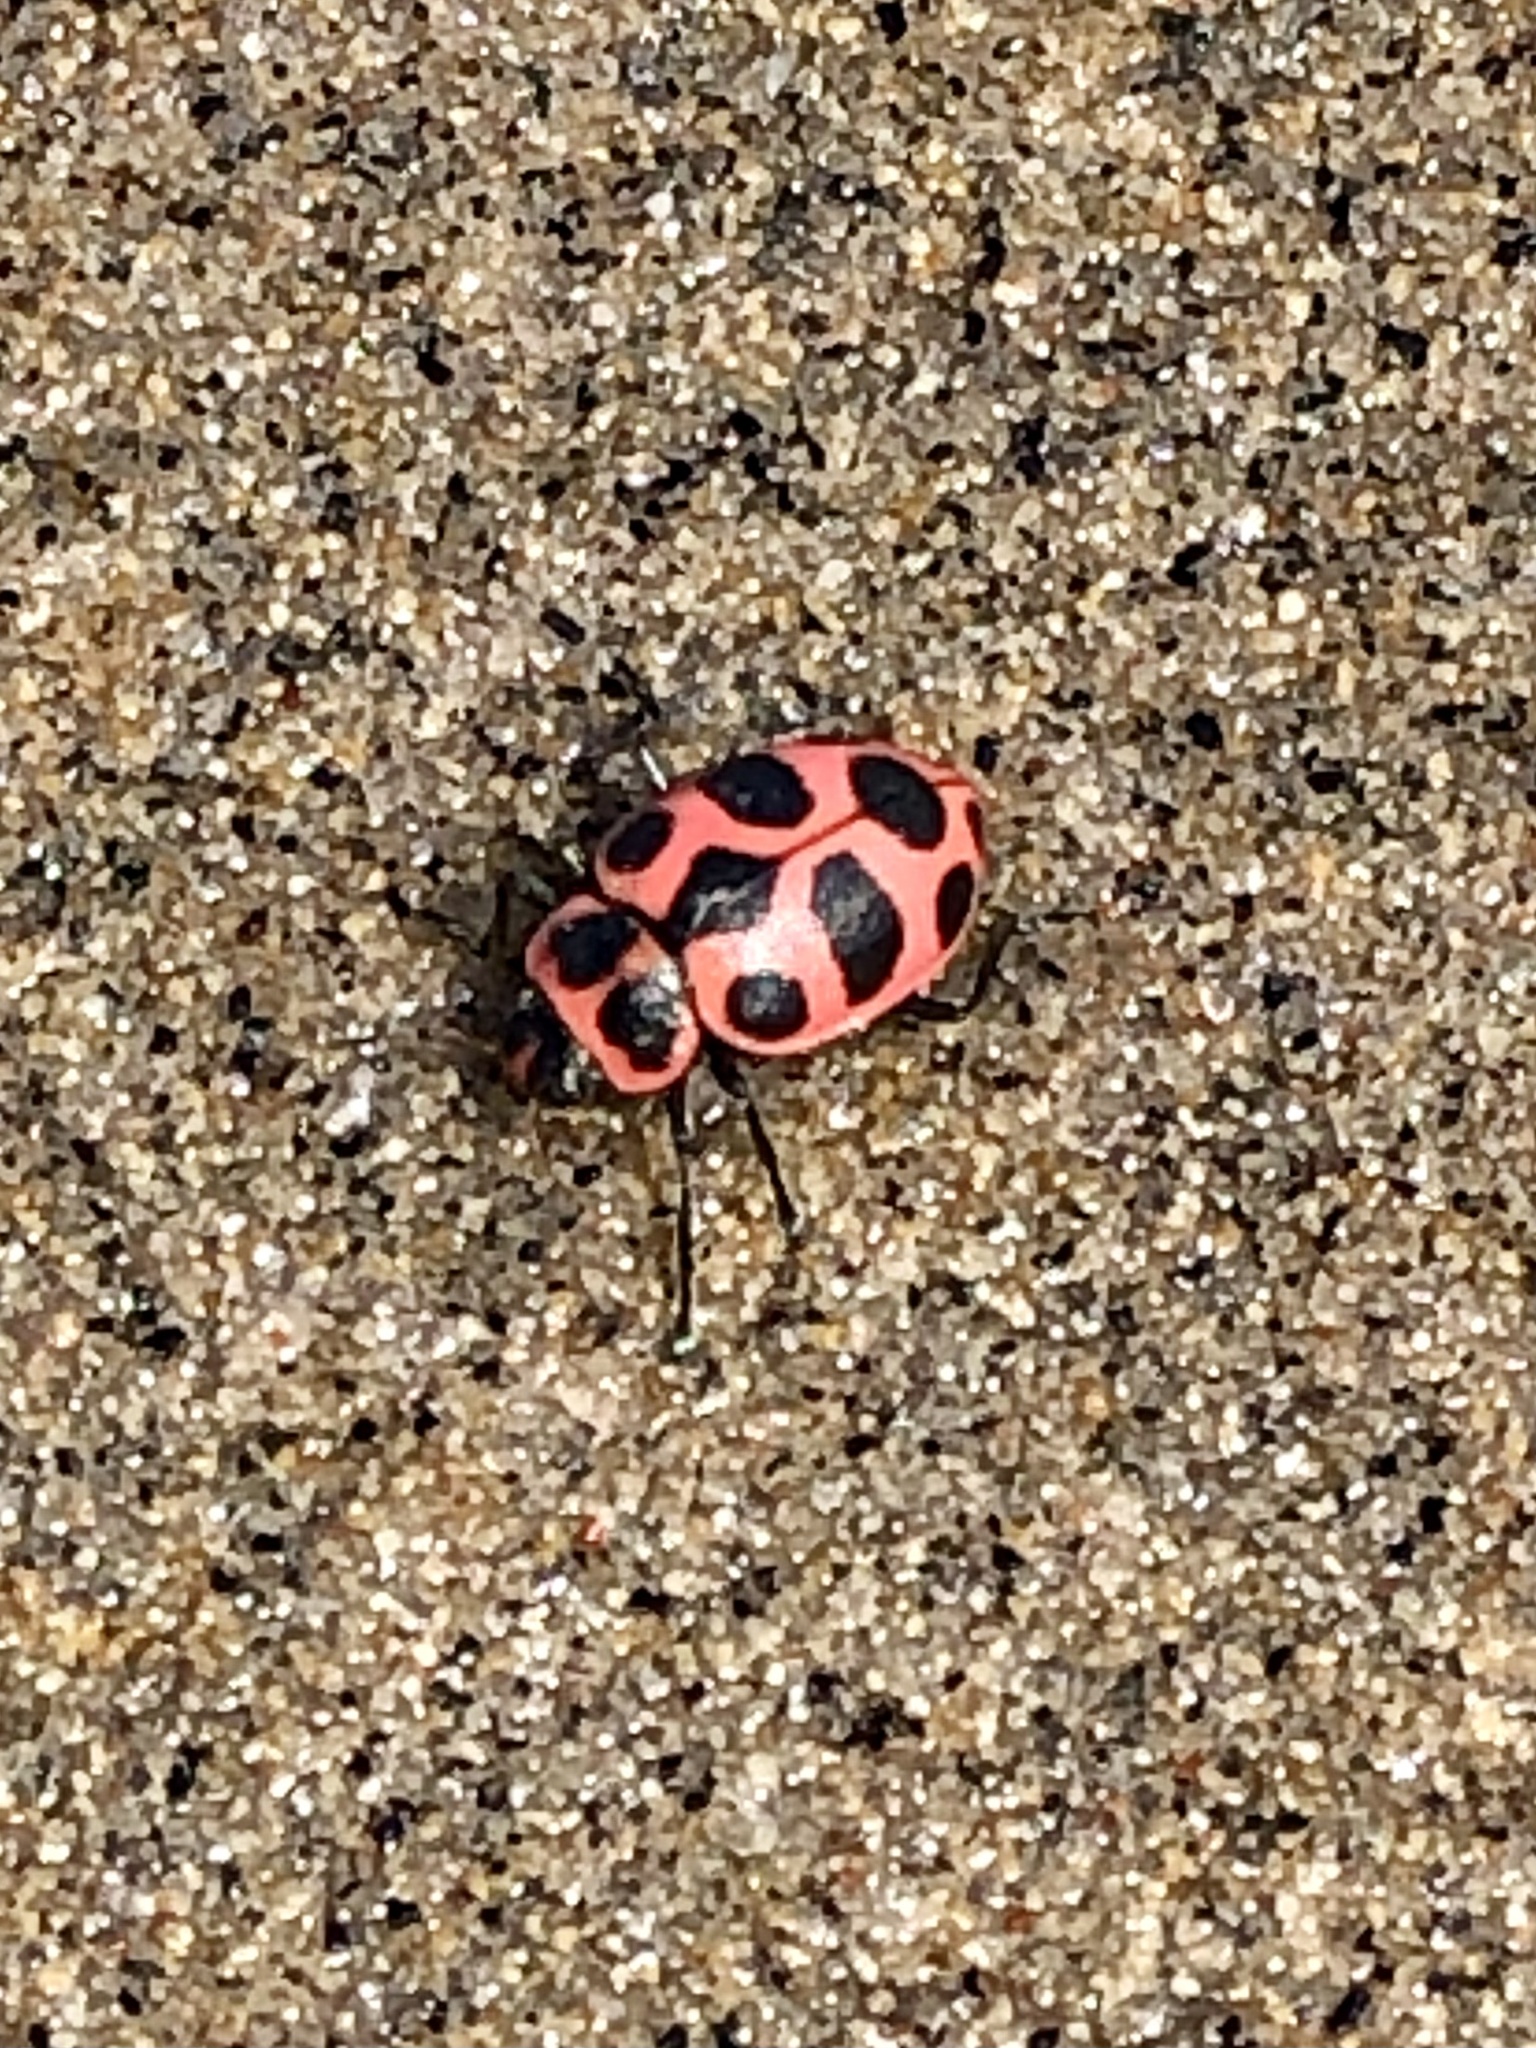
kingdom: Animalia
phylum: Arthropoda
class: Insecta
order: Coleoptera
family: Coccinellidae
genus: Coleomegilla
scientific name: Coleomegilla maculata
